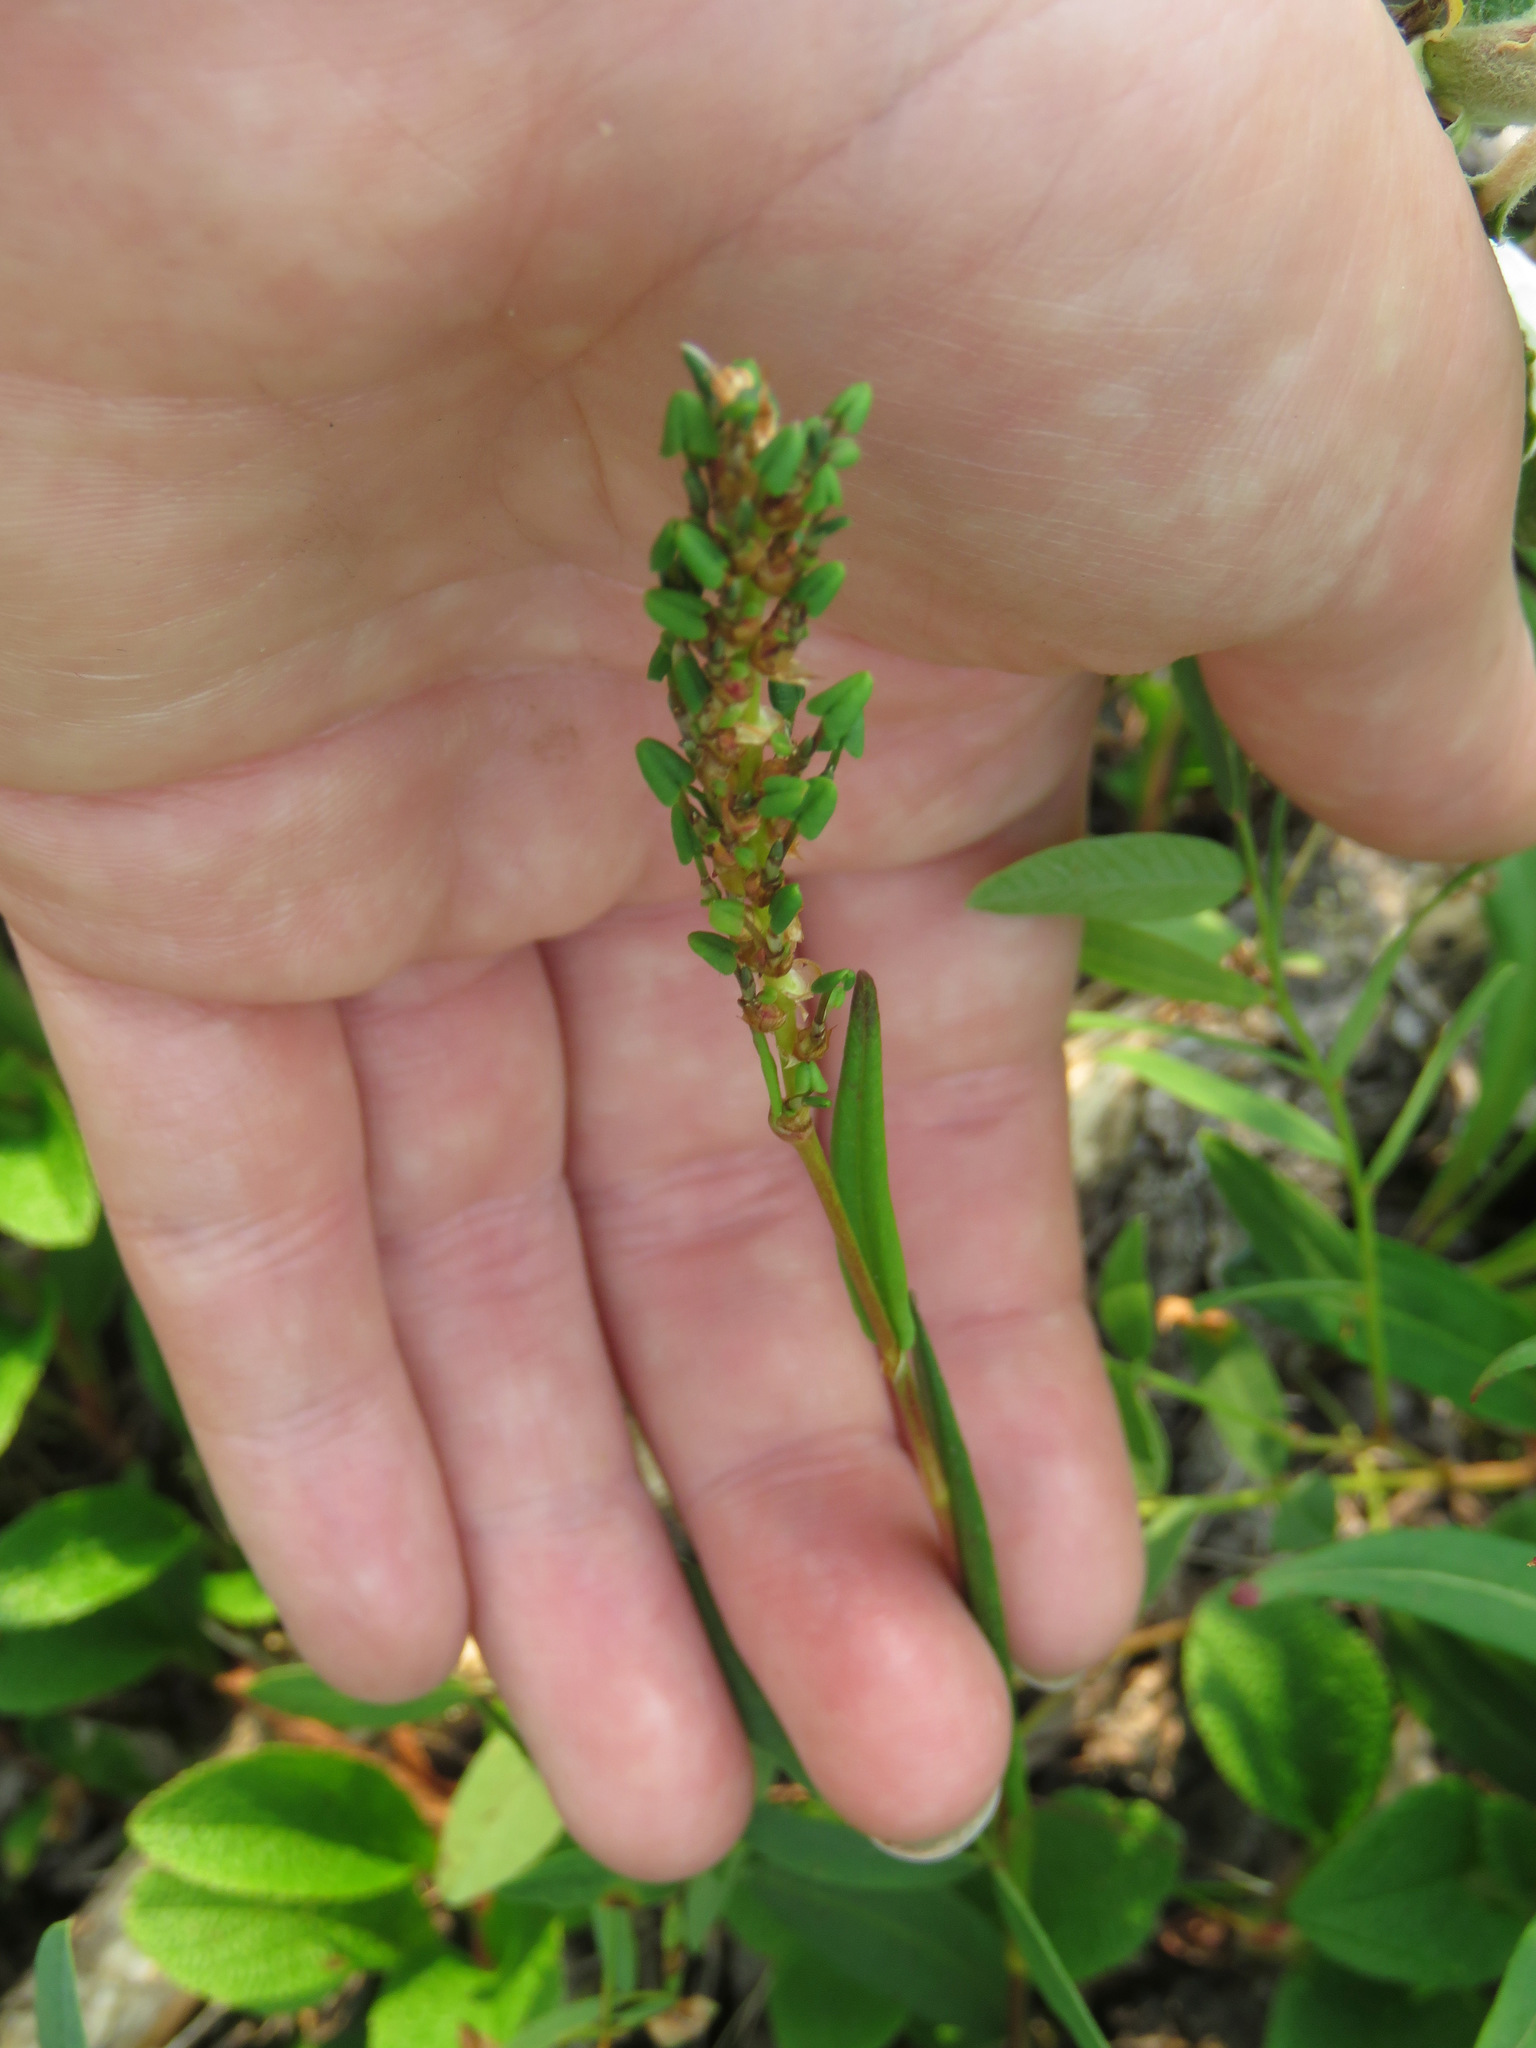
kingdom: Plantae
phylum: Tracheophyta
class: Magnoliopsida
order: Caryophyllales
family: Polygonaceae
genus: Bistorta
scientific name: Bistorta vivipara
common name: Alpine bistort
